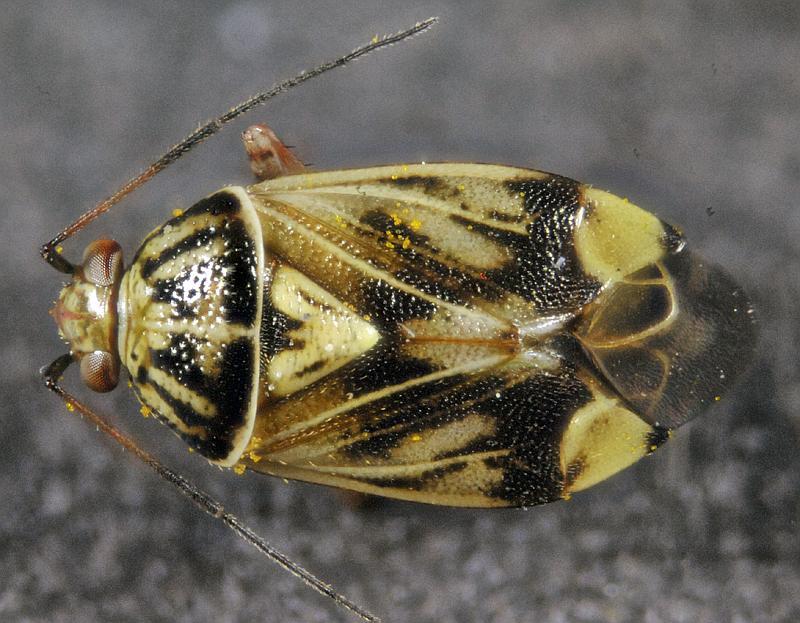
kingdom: Animalia
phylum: Arthropoda
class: Insecta
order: Hemiptera
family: Miridae
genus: Lygus
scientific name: Lygus lineolaris
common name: North american tarnished plant bug
